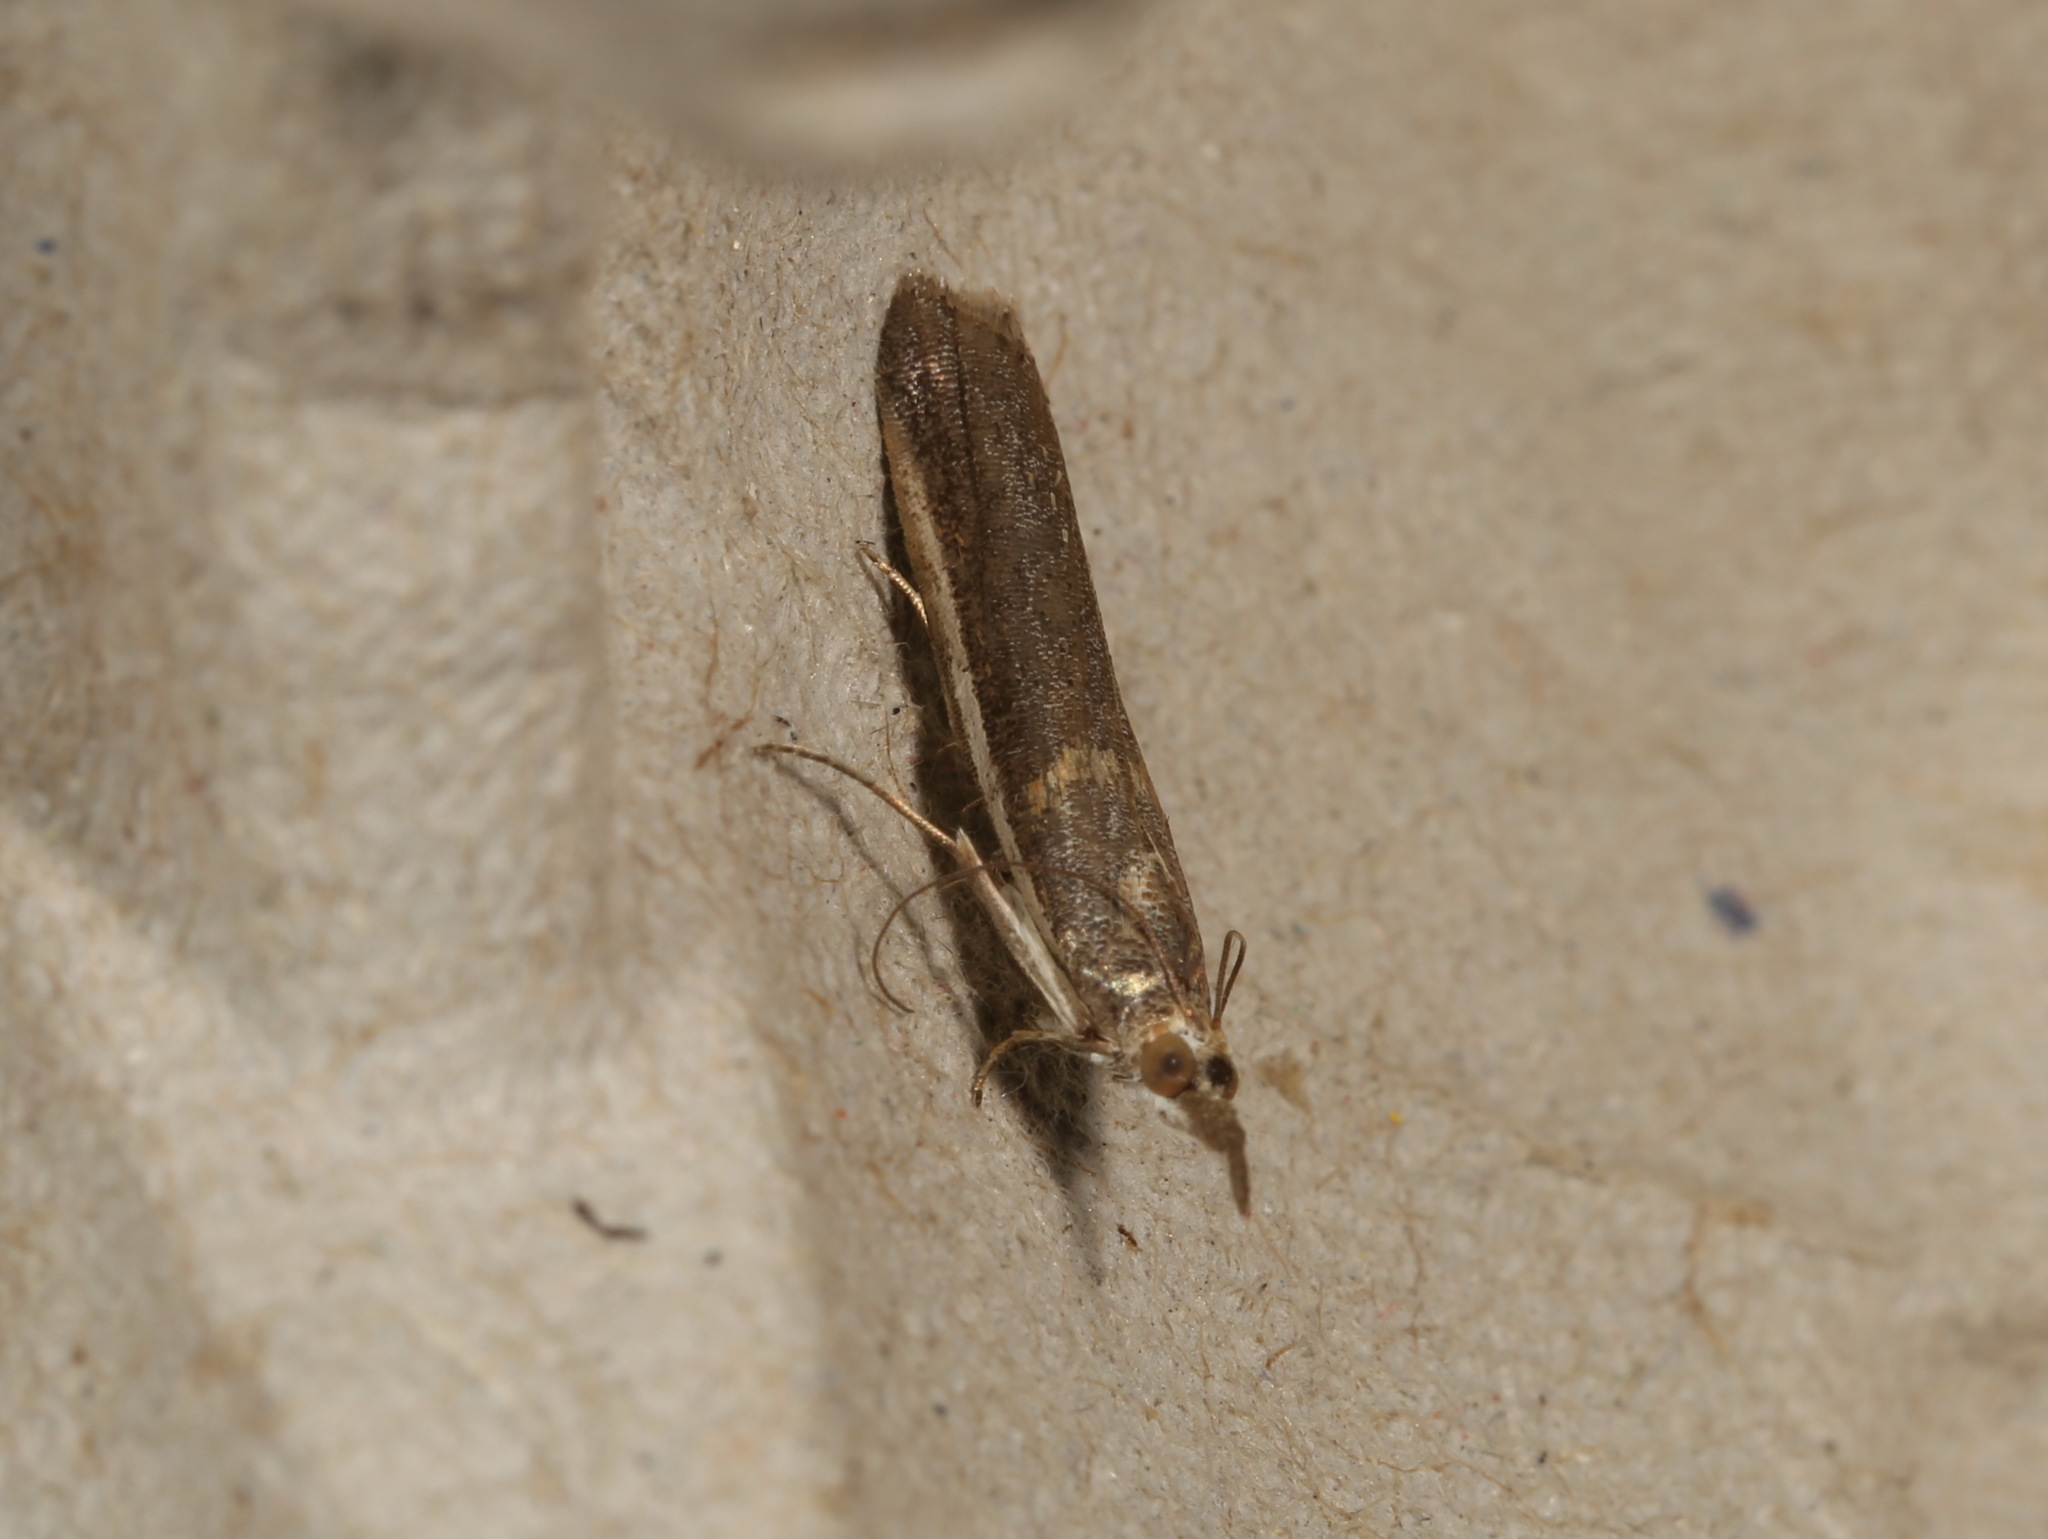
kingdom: Animalia
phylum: Arthropoda
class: Insecta
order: Lepidoptera
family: Pyralidae
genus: Etiella
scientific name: Etiella behrii
